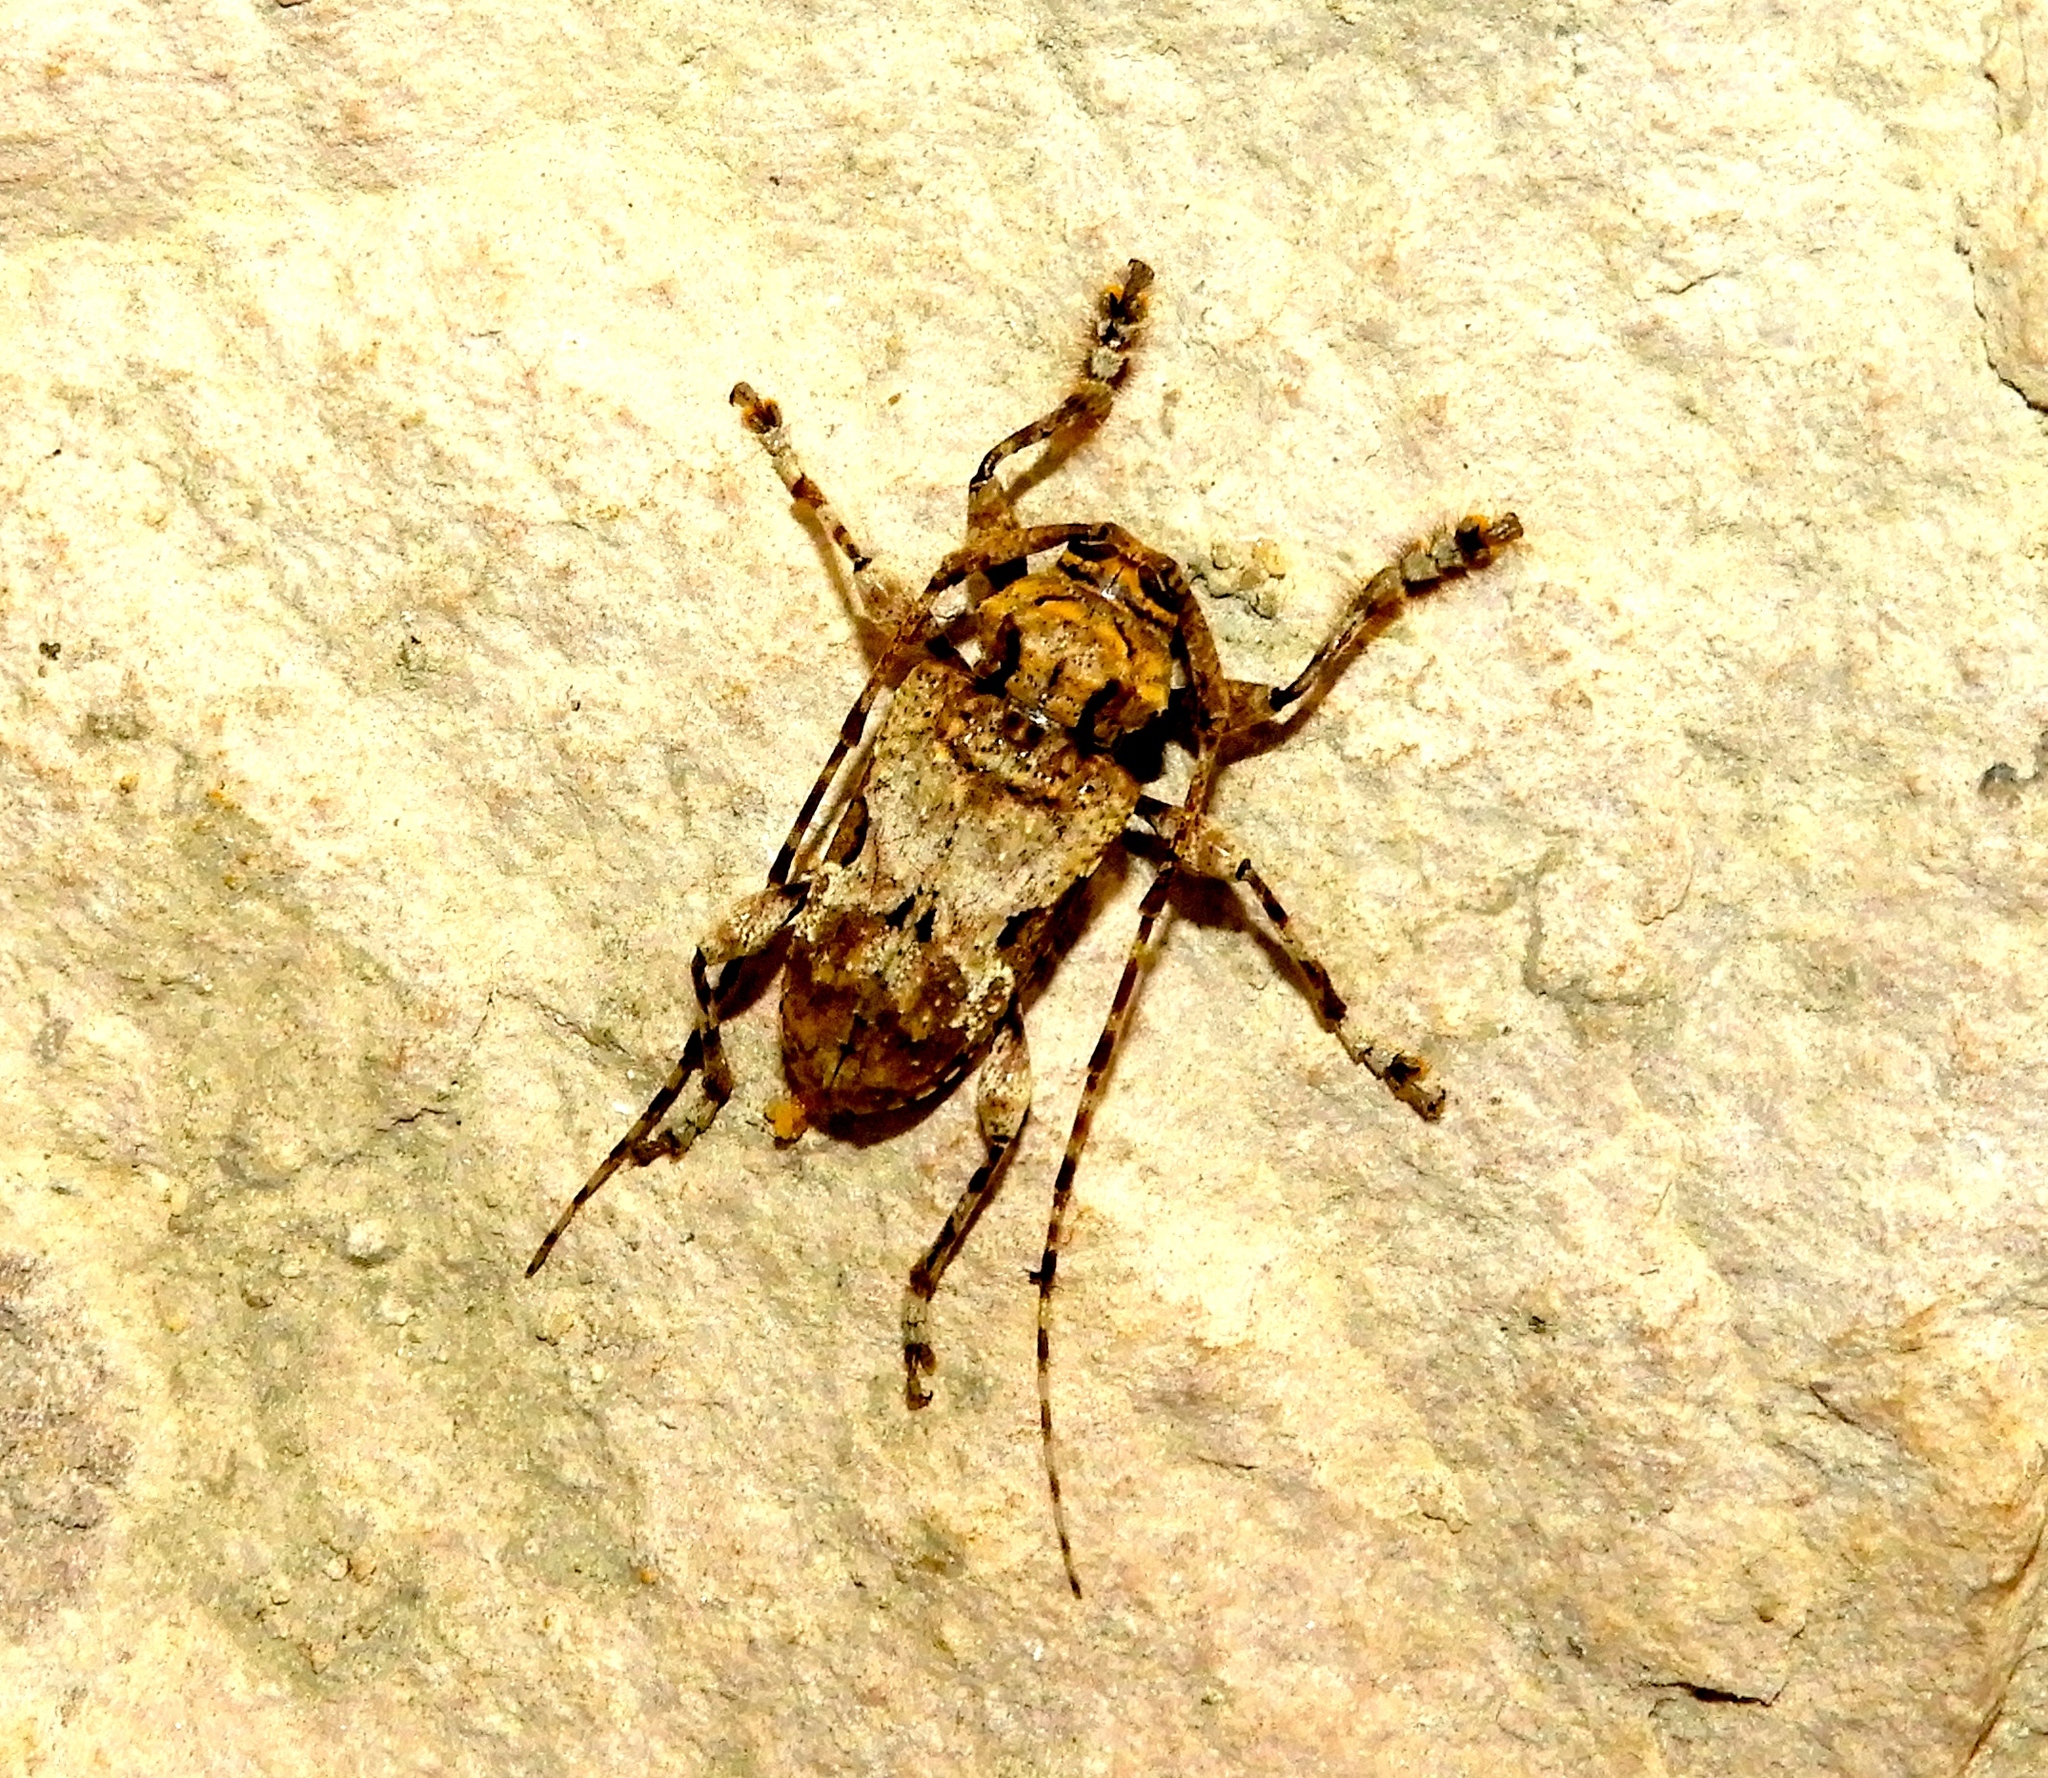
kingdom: Animalia
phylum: Arthropoda
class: Insecta
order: Coleoptera
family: Cerambycidae
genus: Lagocheirus
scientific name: Lagocheirus
